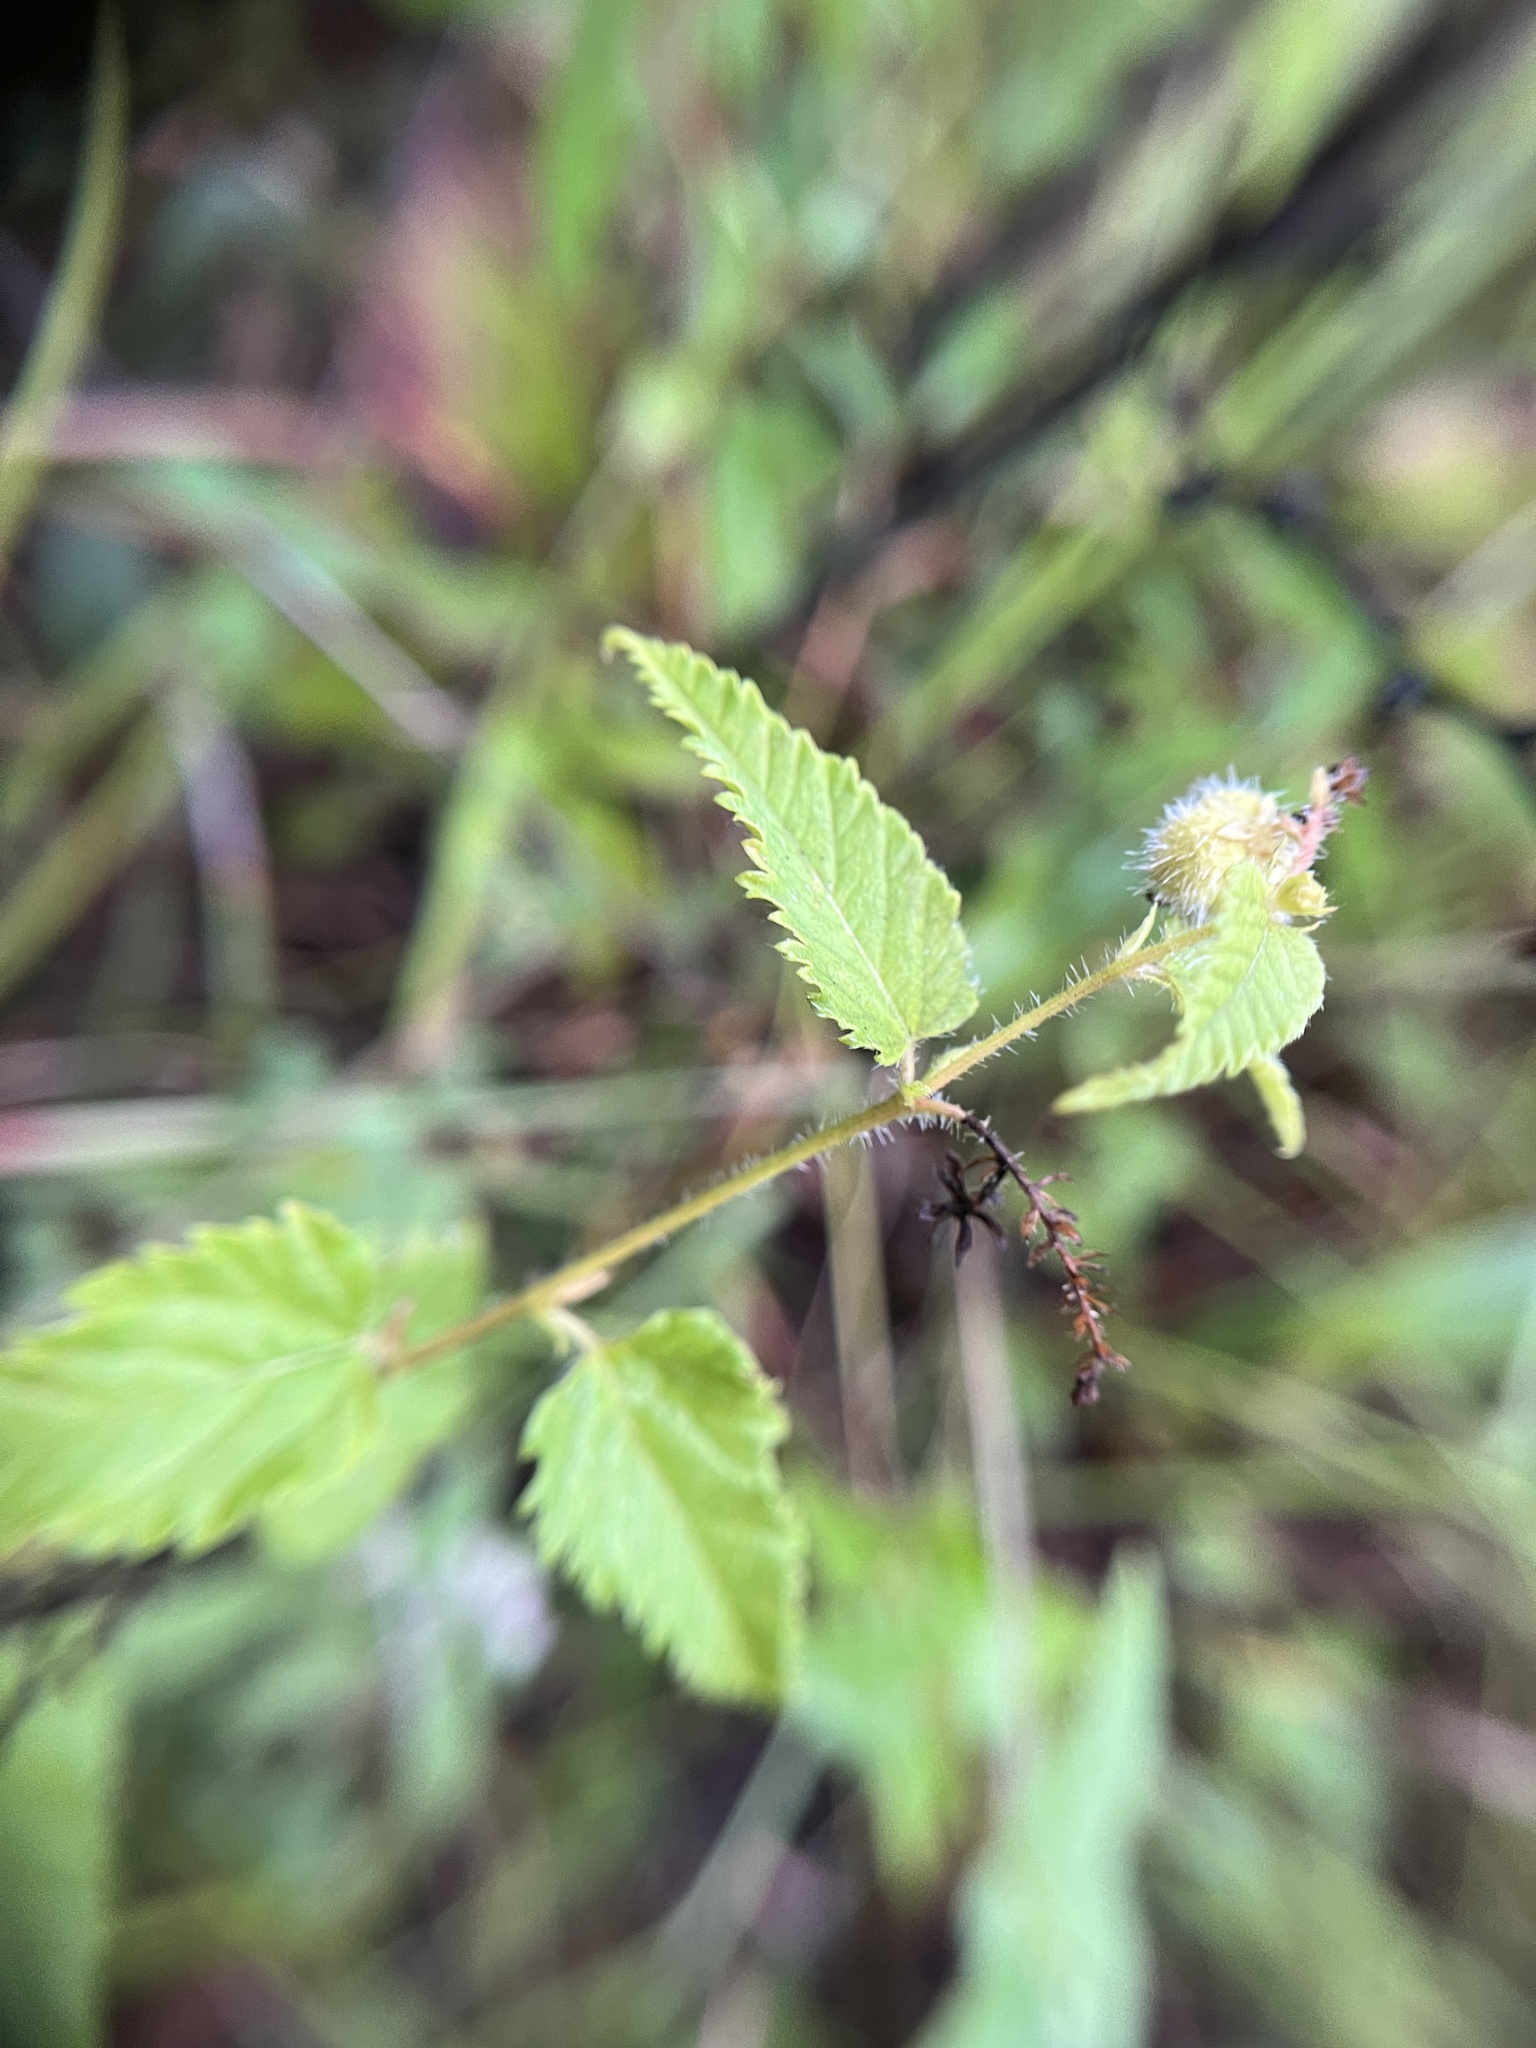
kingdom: Plantae
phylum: Tracheophyta
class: Magnoliopsida
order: Malpighiales
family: Euphorbiaceae
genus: Tragia
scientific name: Tragia urticifolia
